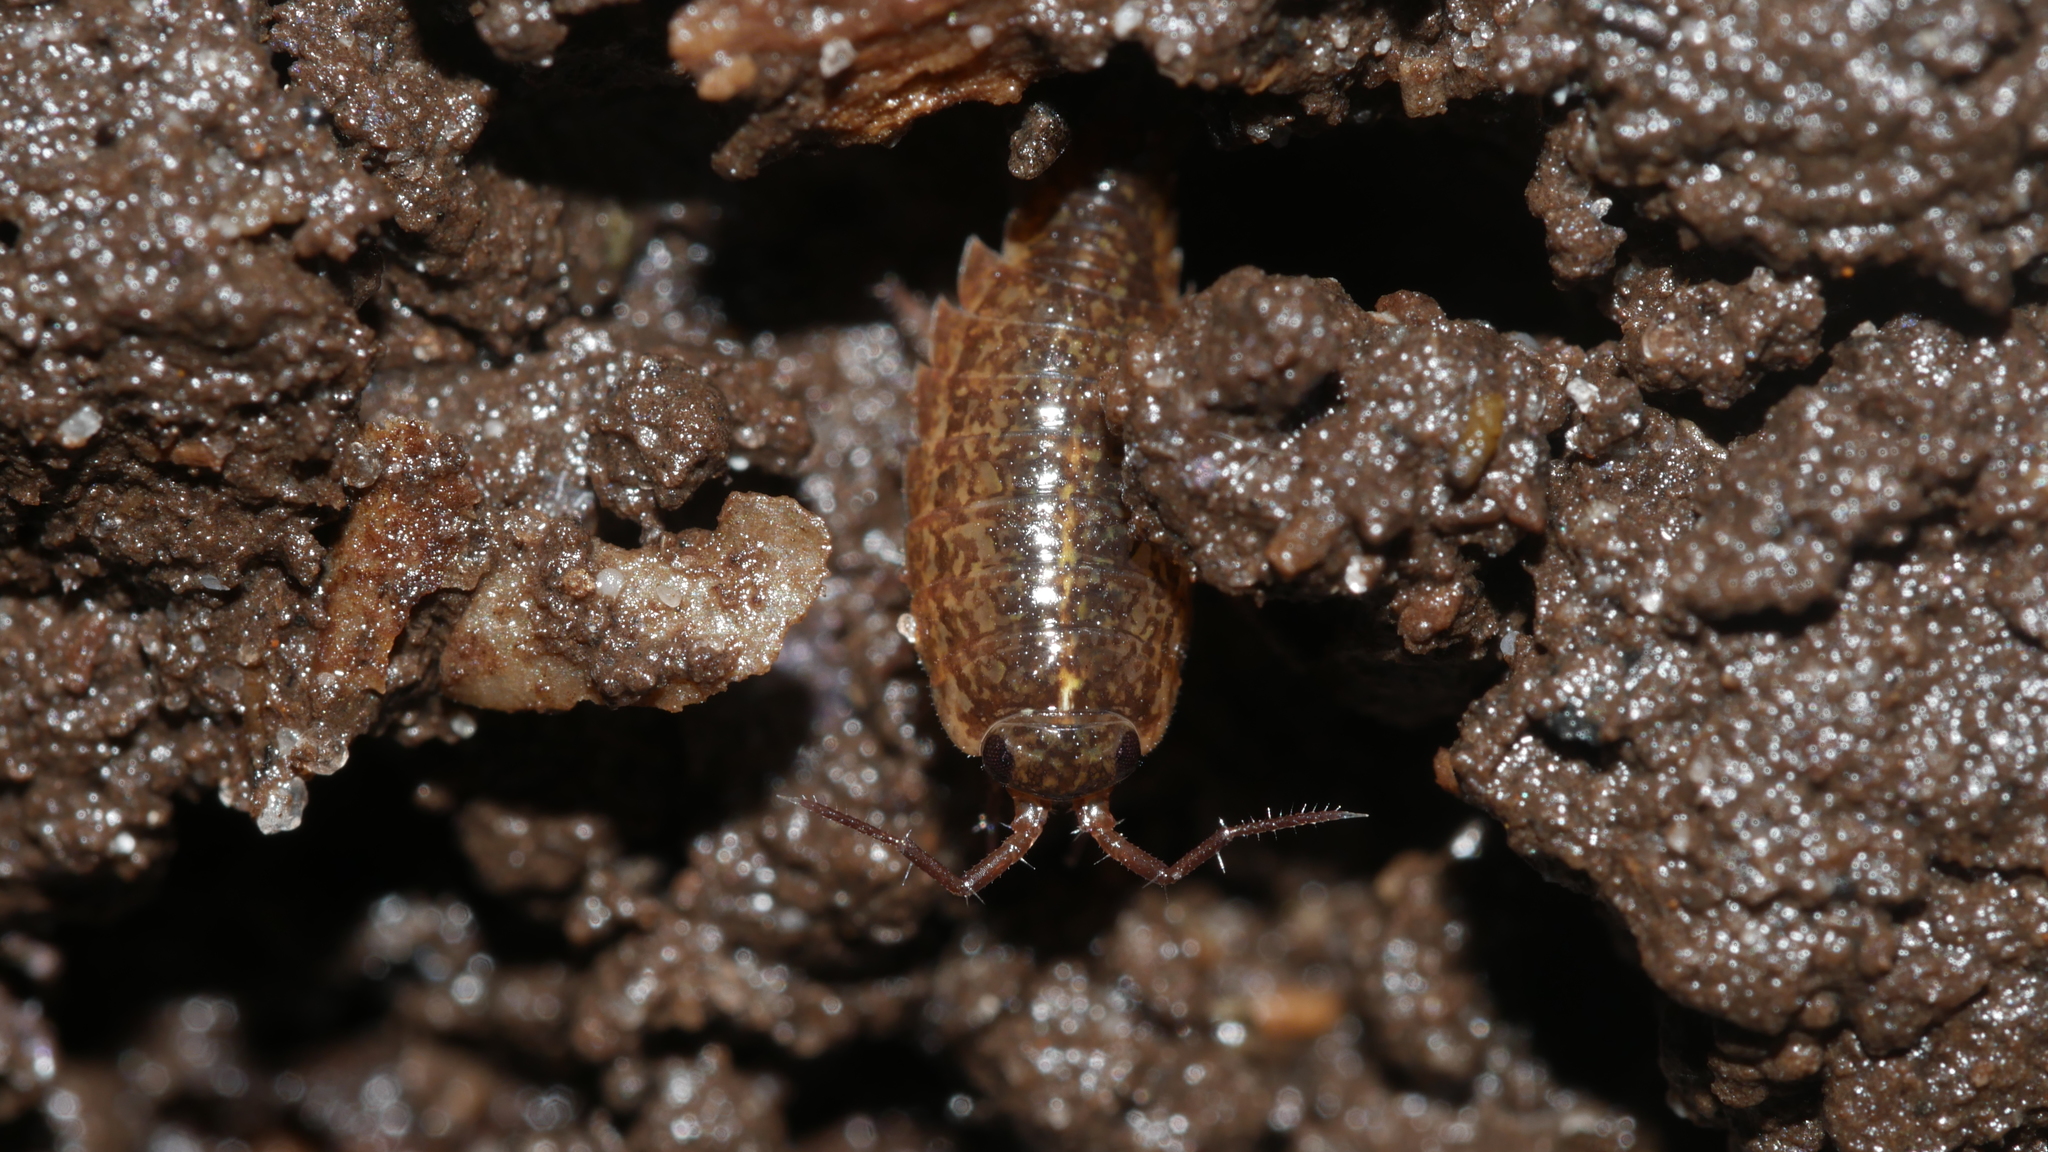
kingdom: Animalia
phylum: Arthropoda
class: Malacostraca
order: Isopoda
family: Ligiidae
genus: Ligidium
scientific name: Ligidium elrodii
